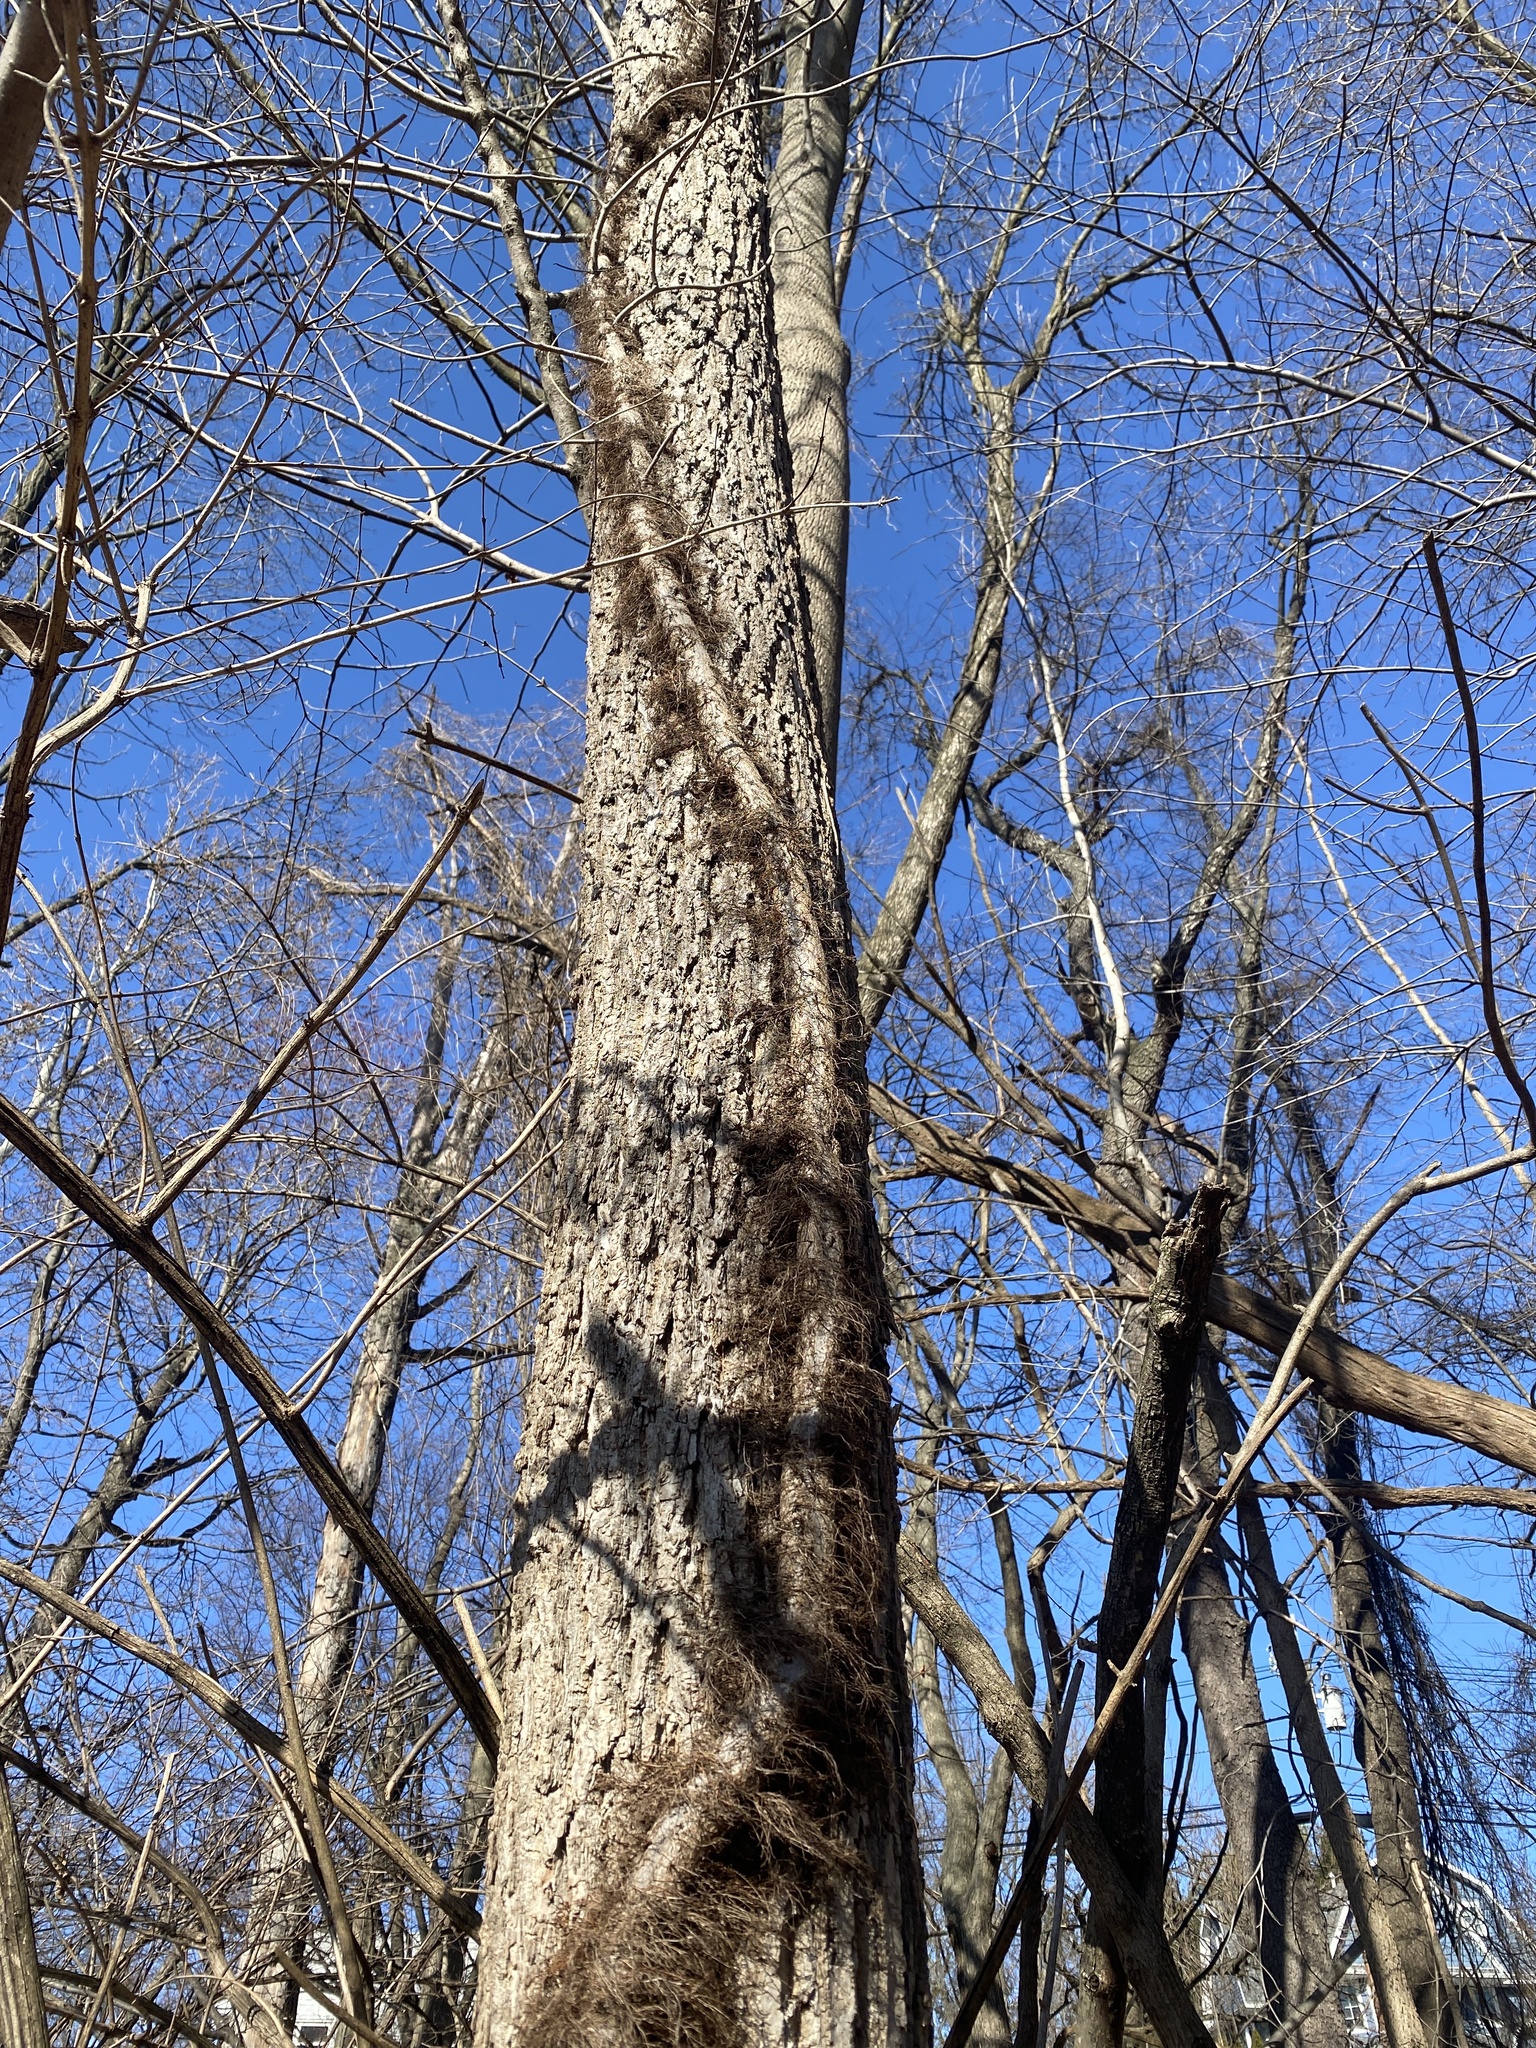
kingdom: Plantae
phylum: Tracheophyta
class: Magnoliopsida
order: Sapindales
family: Anacardiaceae
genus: Toxicodendron
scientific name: Toxicodendron radicans
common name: Poison ivy
